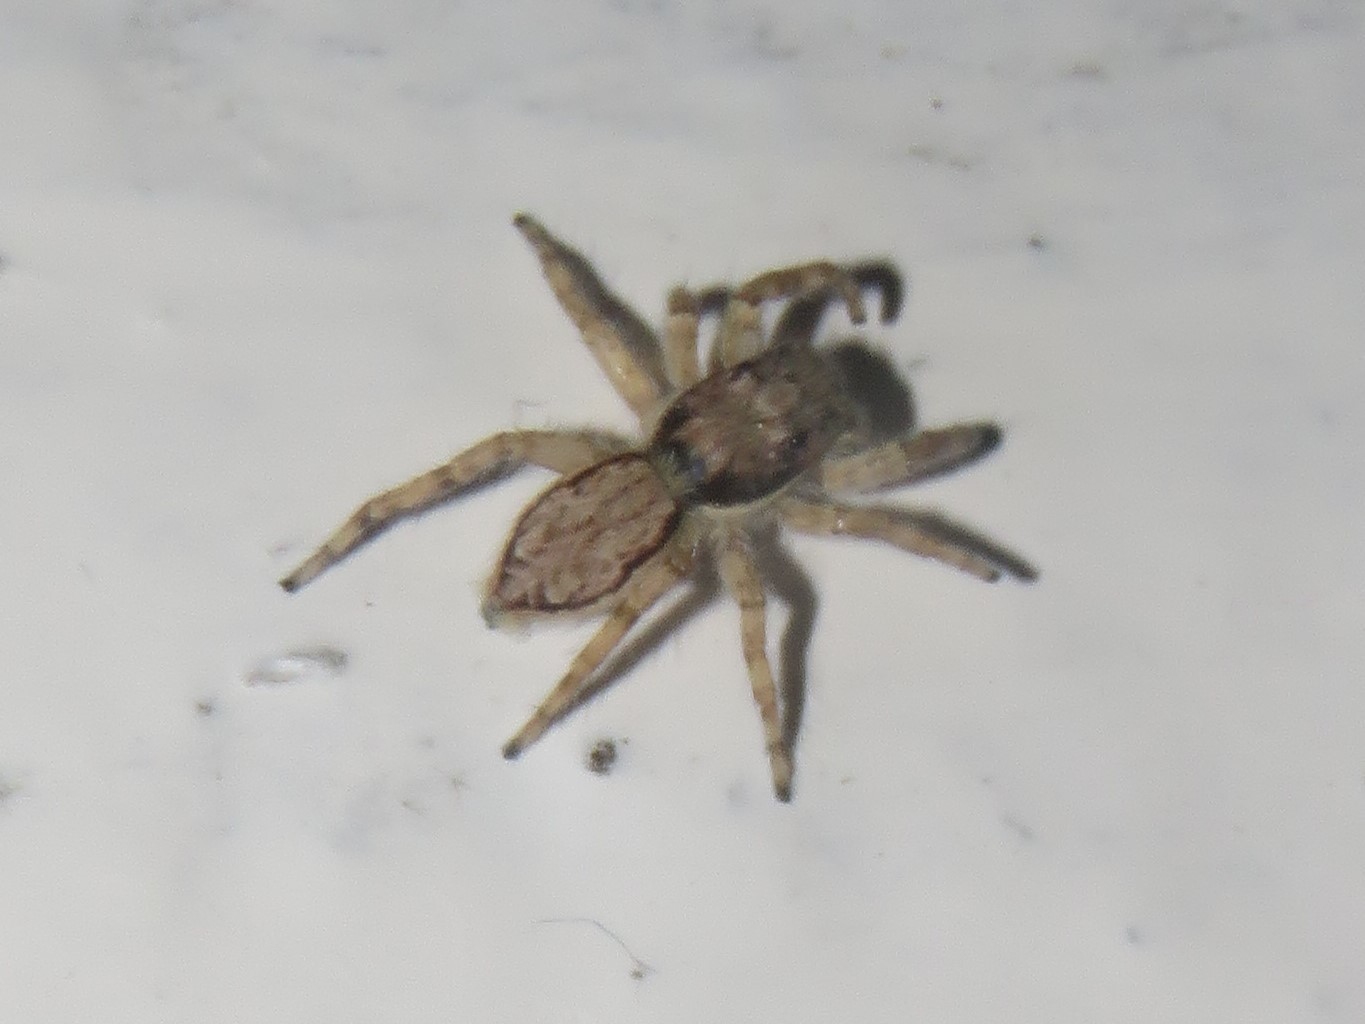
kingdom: Animalia
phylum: Arthropoda
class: Arachnida
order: Araneae
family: Salticidae
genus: Menemerus
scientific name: Menemerus bivittatus
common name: Gray wall jumper
